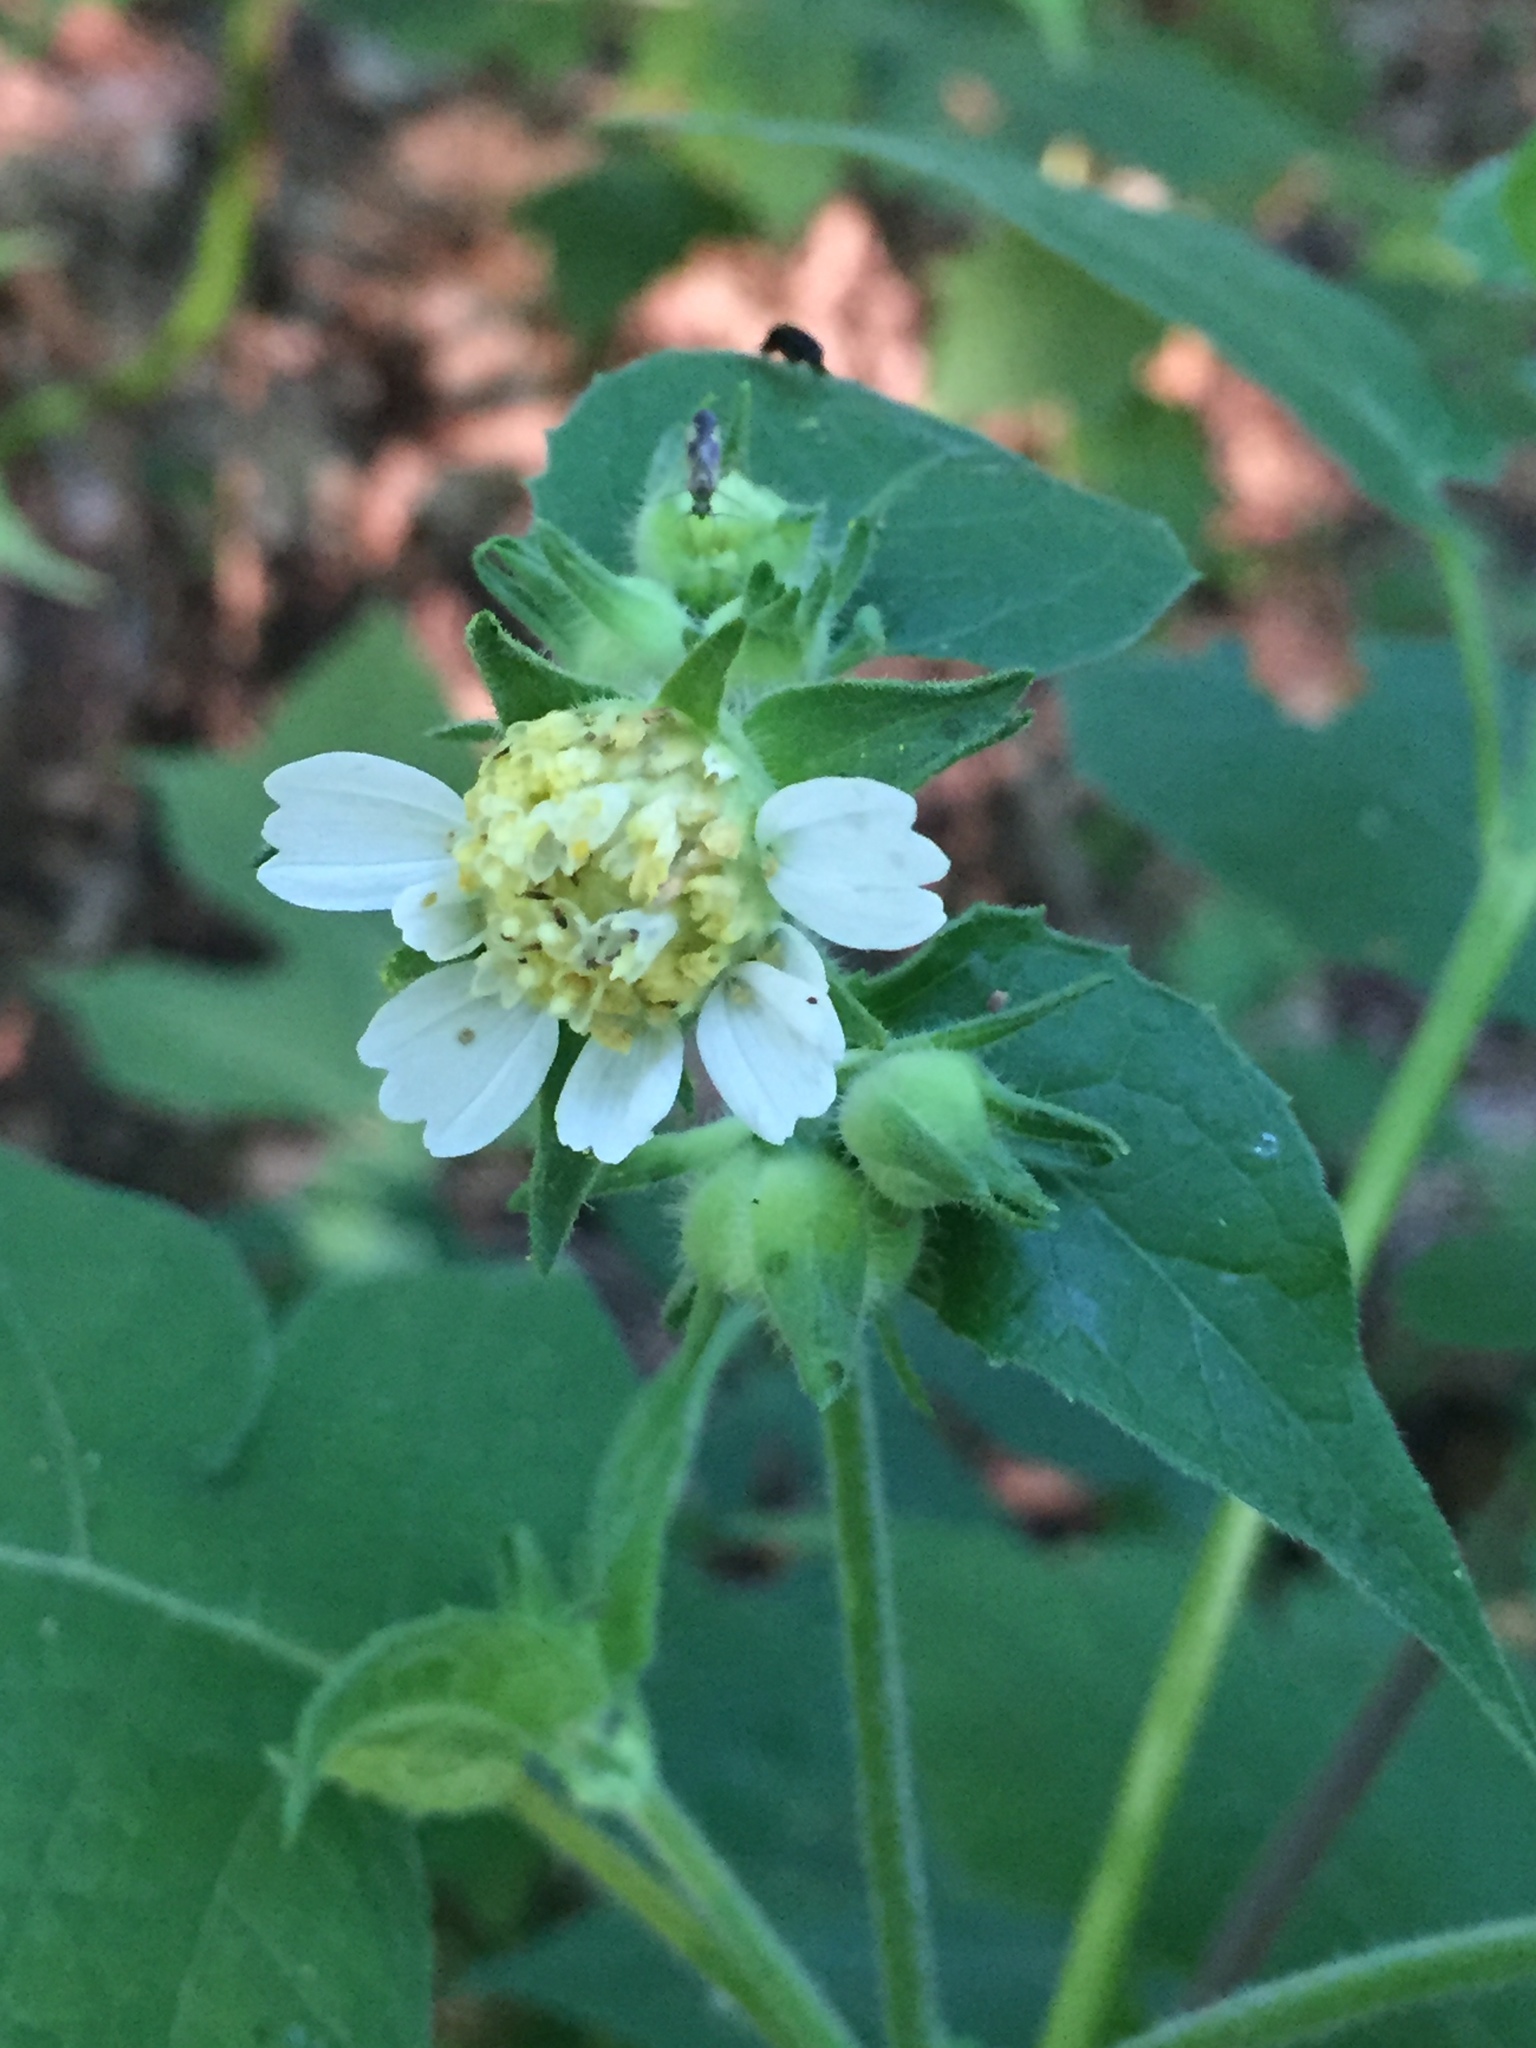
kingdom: Plantae
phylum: Tracheophyta
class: Magnoliopsida
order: Asterales
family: Asteraceae
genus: Polymnia
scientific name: Polymnia canadensis
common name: Pale-flowered leafcup
